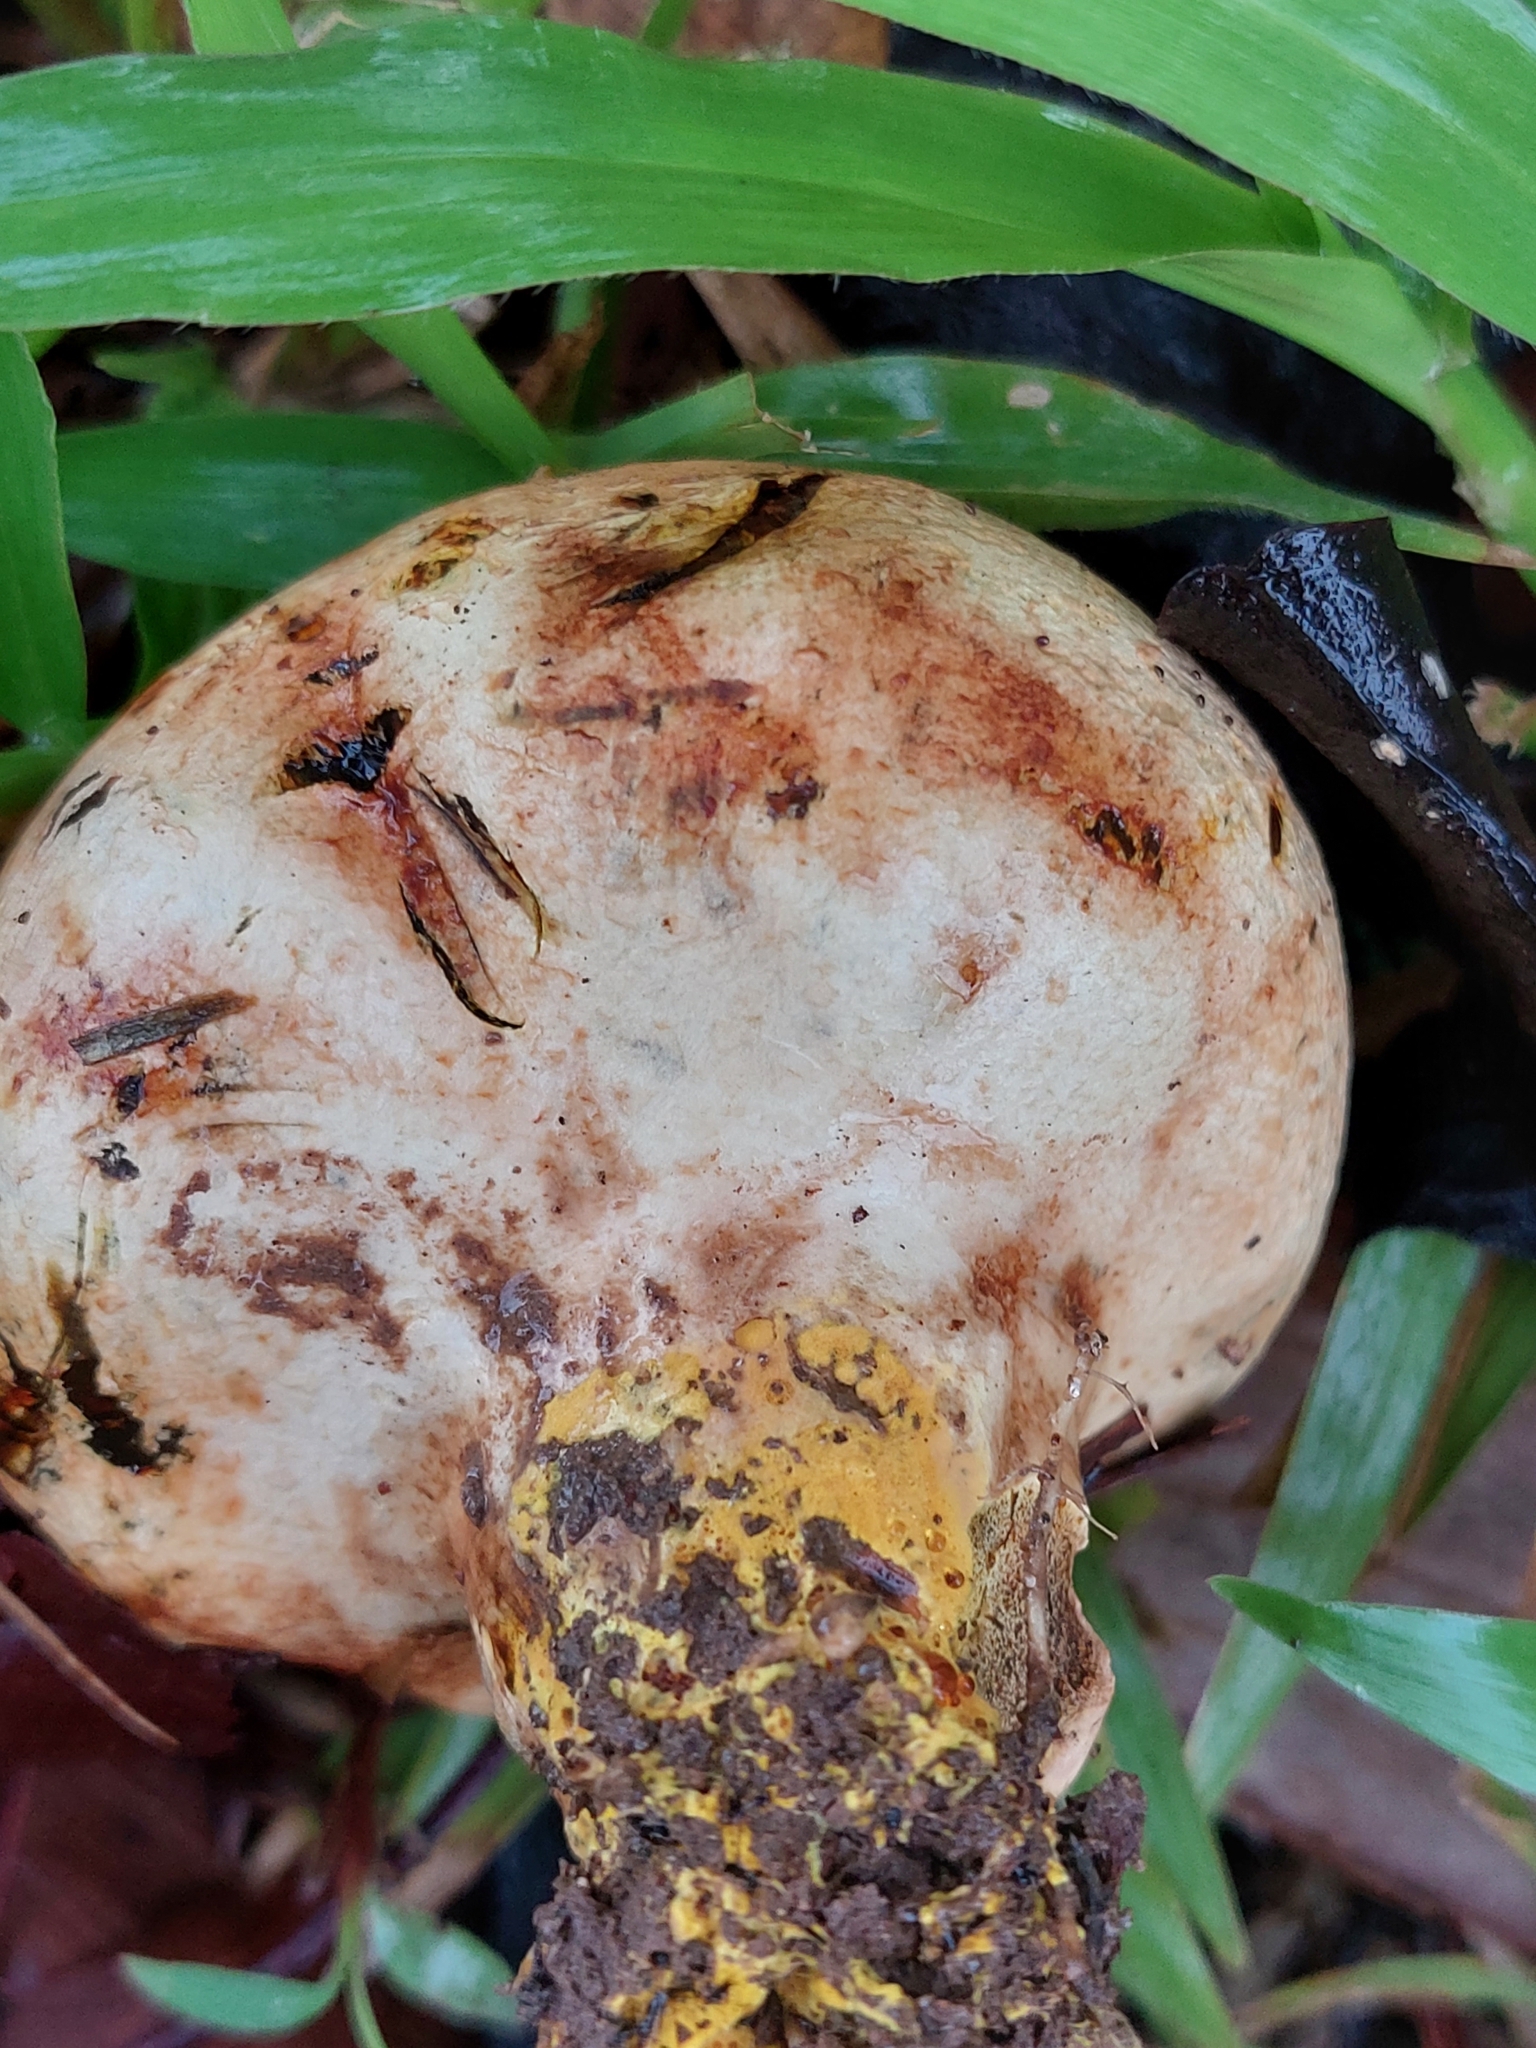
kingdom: Fungi
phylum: Basidiomycota
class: Agaricomycetes
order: Boletales
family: Sclerodermataceae
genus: Scleroderma
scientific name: Scleroderma cepa
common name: Onion earthball
